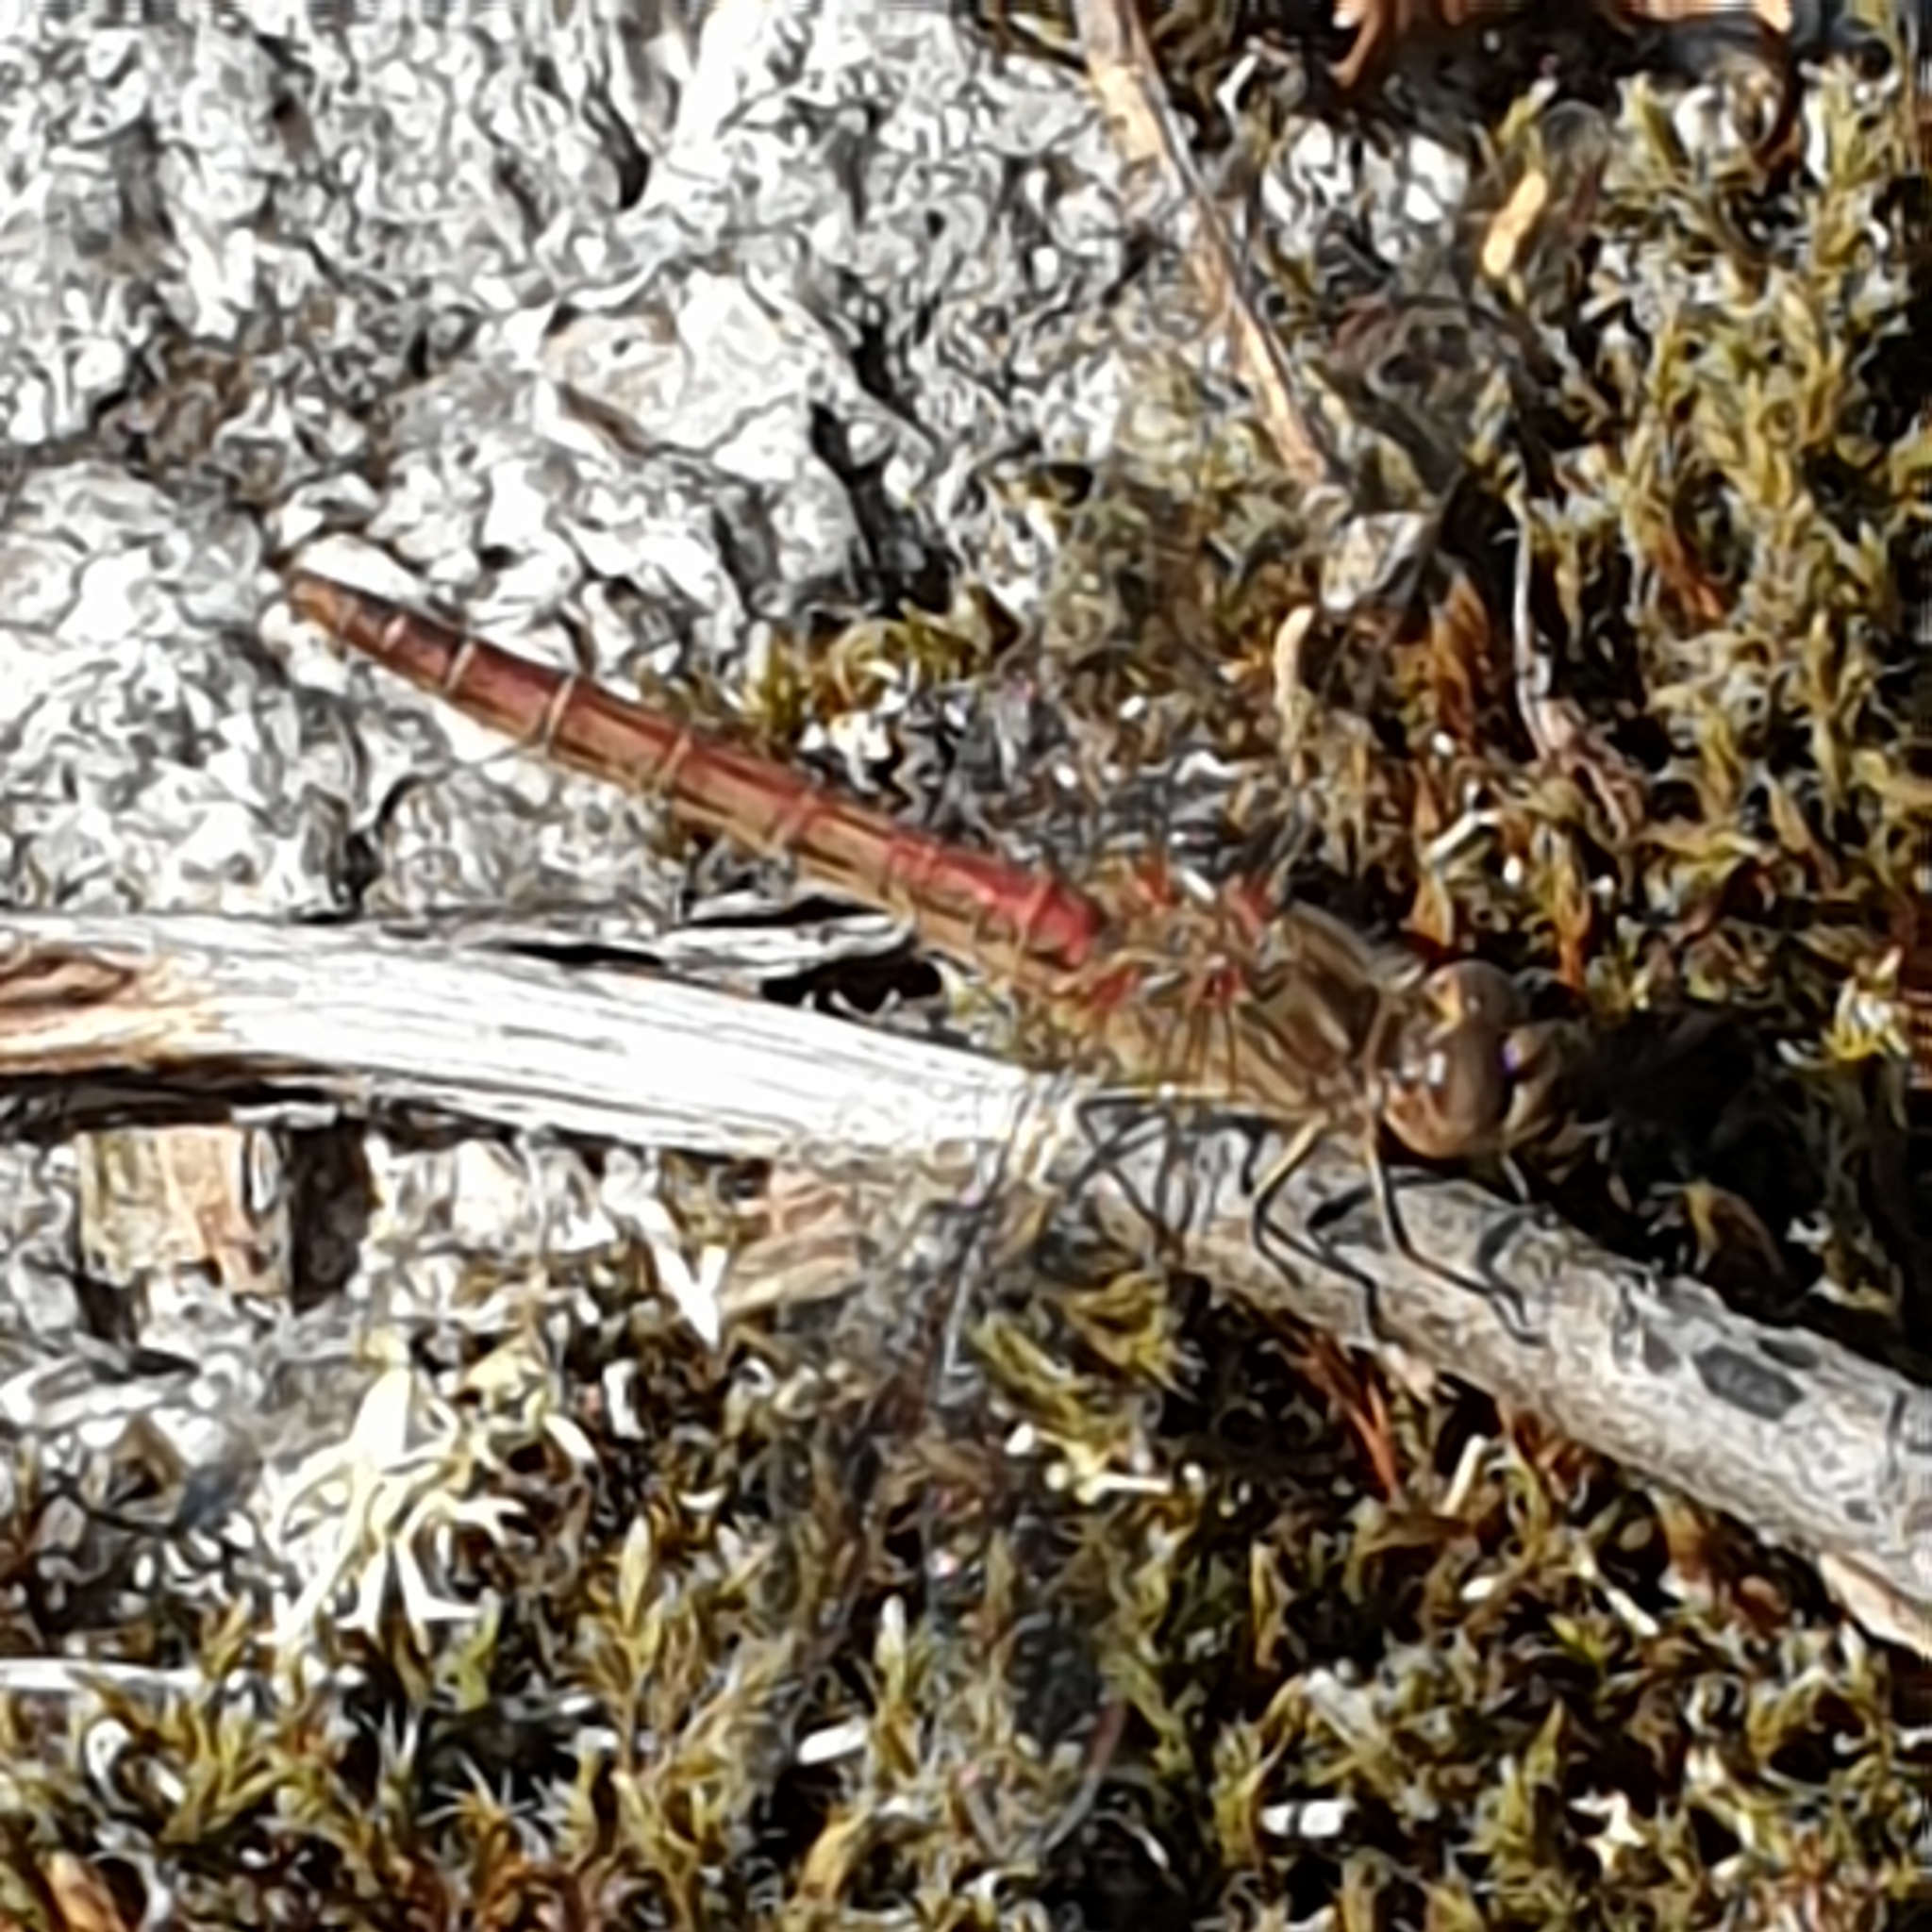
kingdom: Animalia
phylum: Arthropoda
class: Insecta
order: Odonata
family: Libellulidae
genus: Sympetrum
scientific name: Sympetrum vulgatum
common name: Vagrant darter
